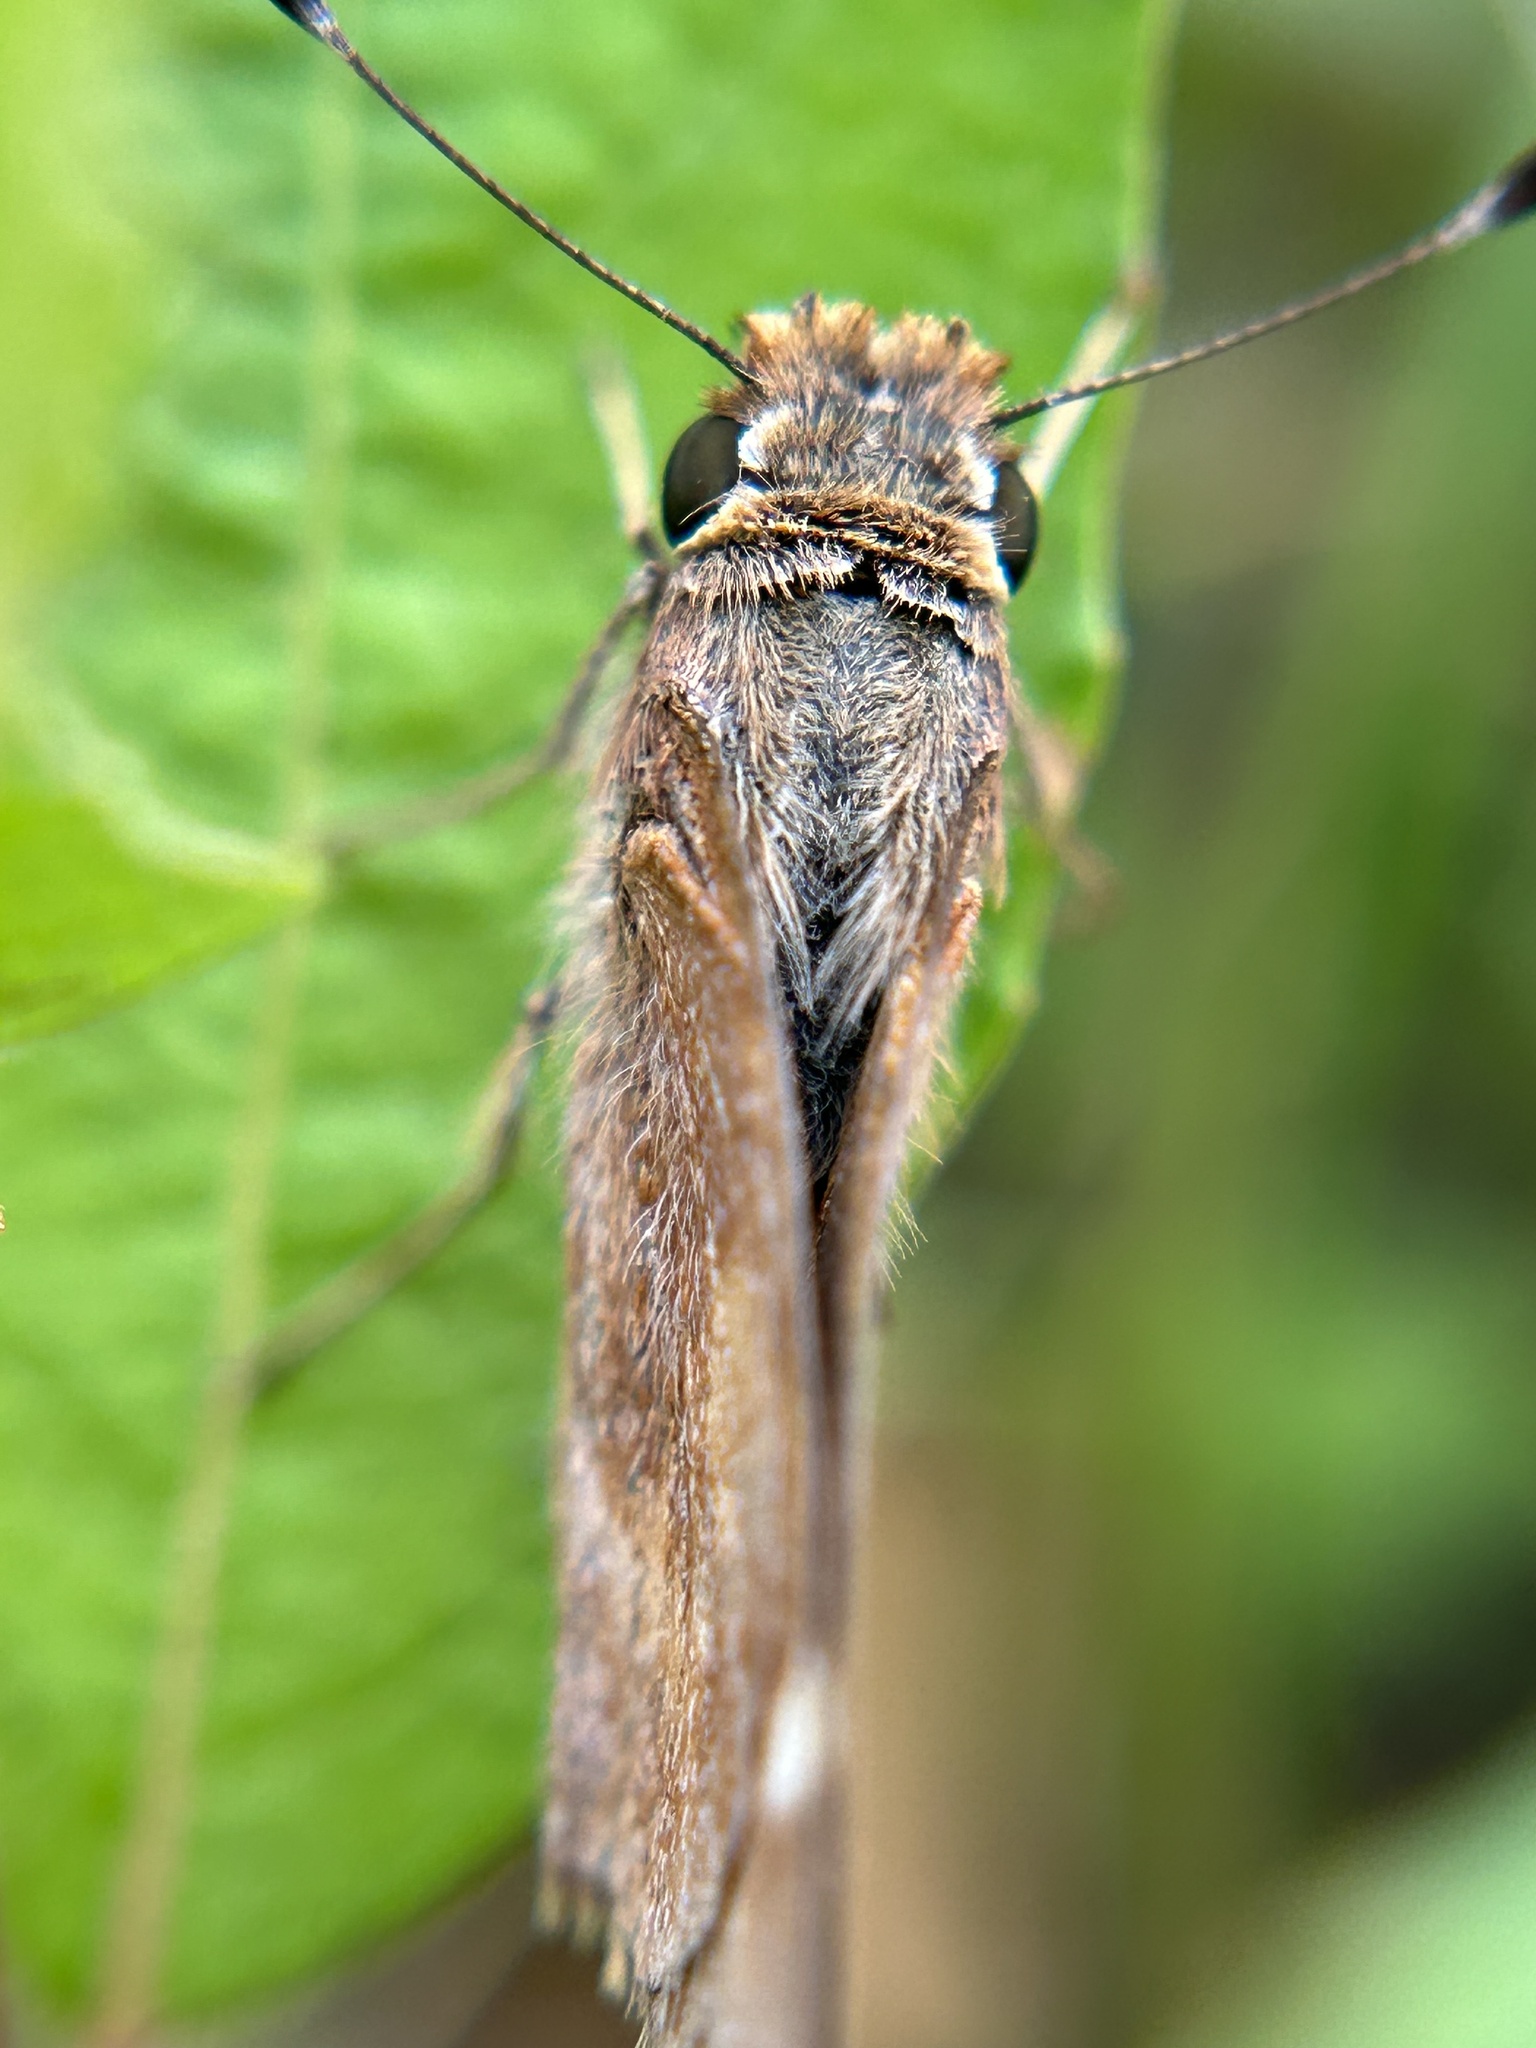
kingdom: Animalia
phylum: Arthropoda
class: Insecta
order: Lepidoptera
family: Hesperiidae
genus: Lon
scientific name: Lon melane
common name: Umber skipper
